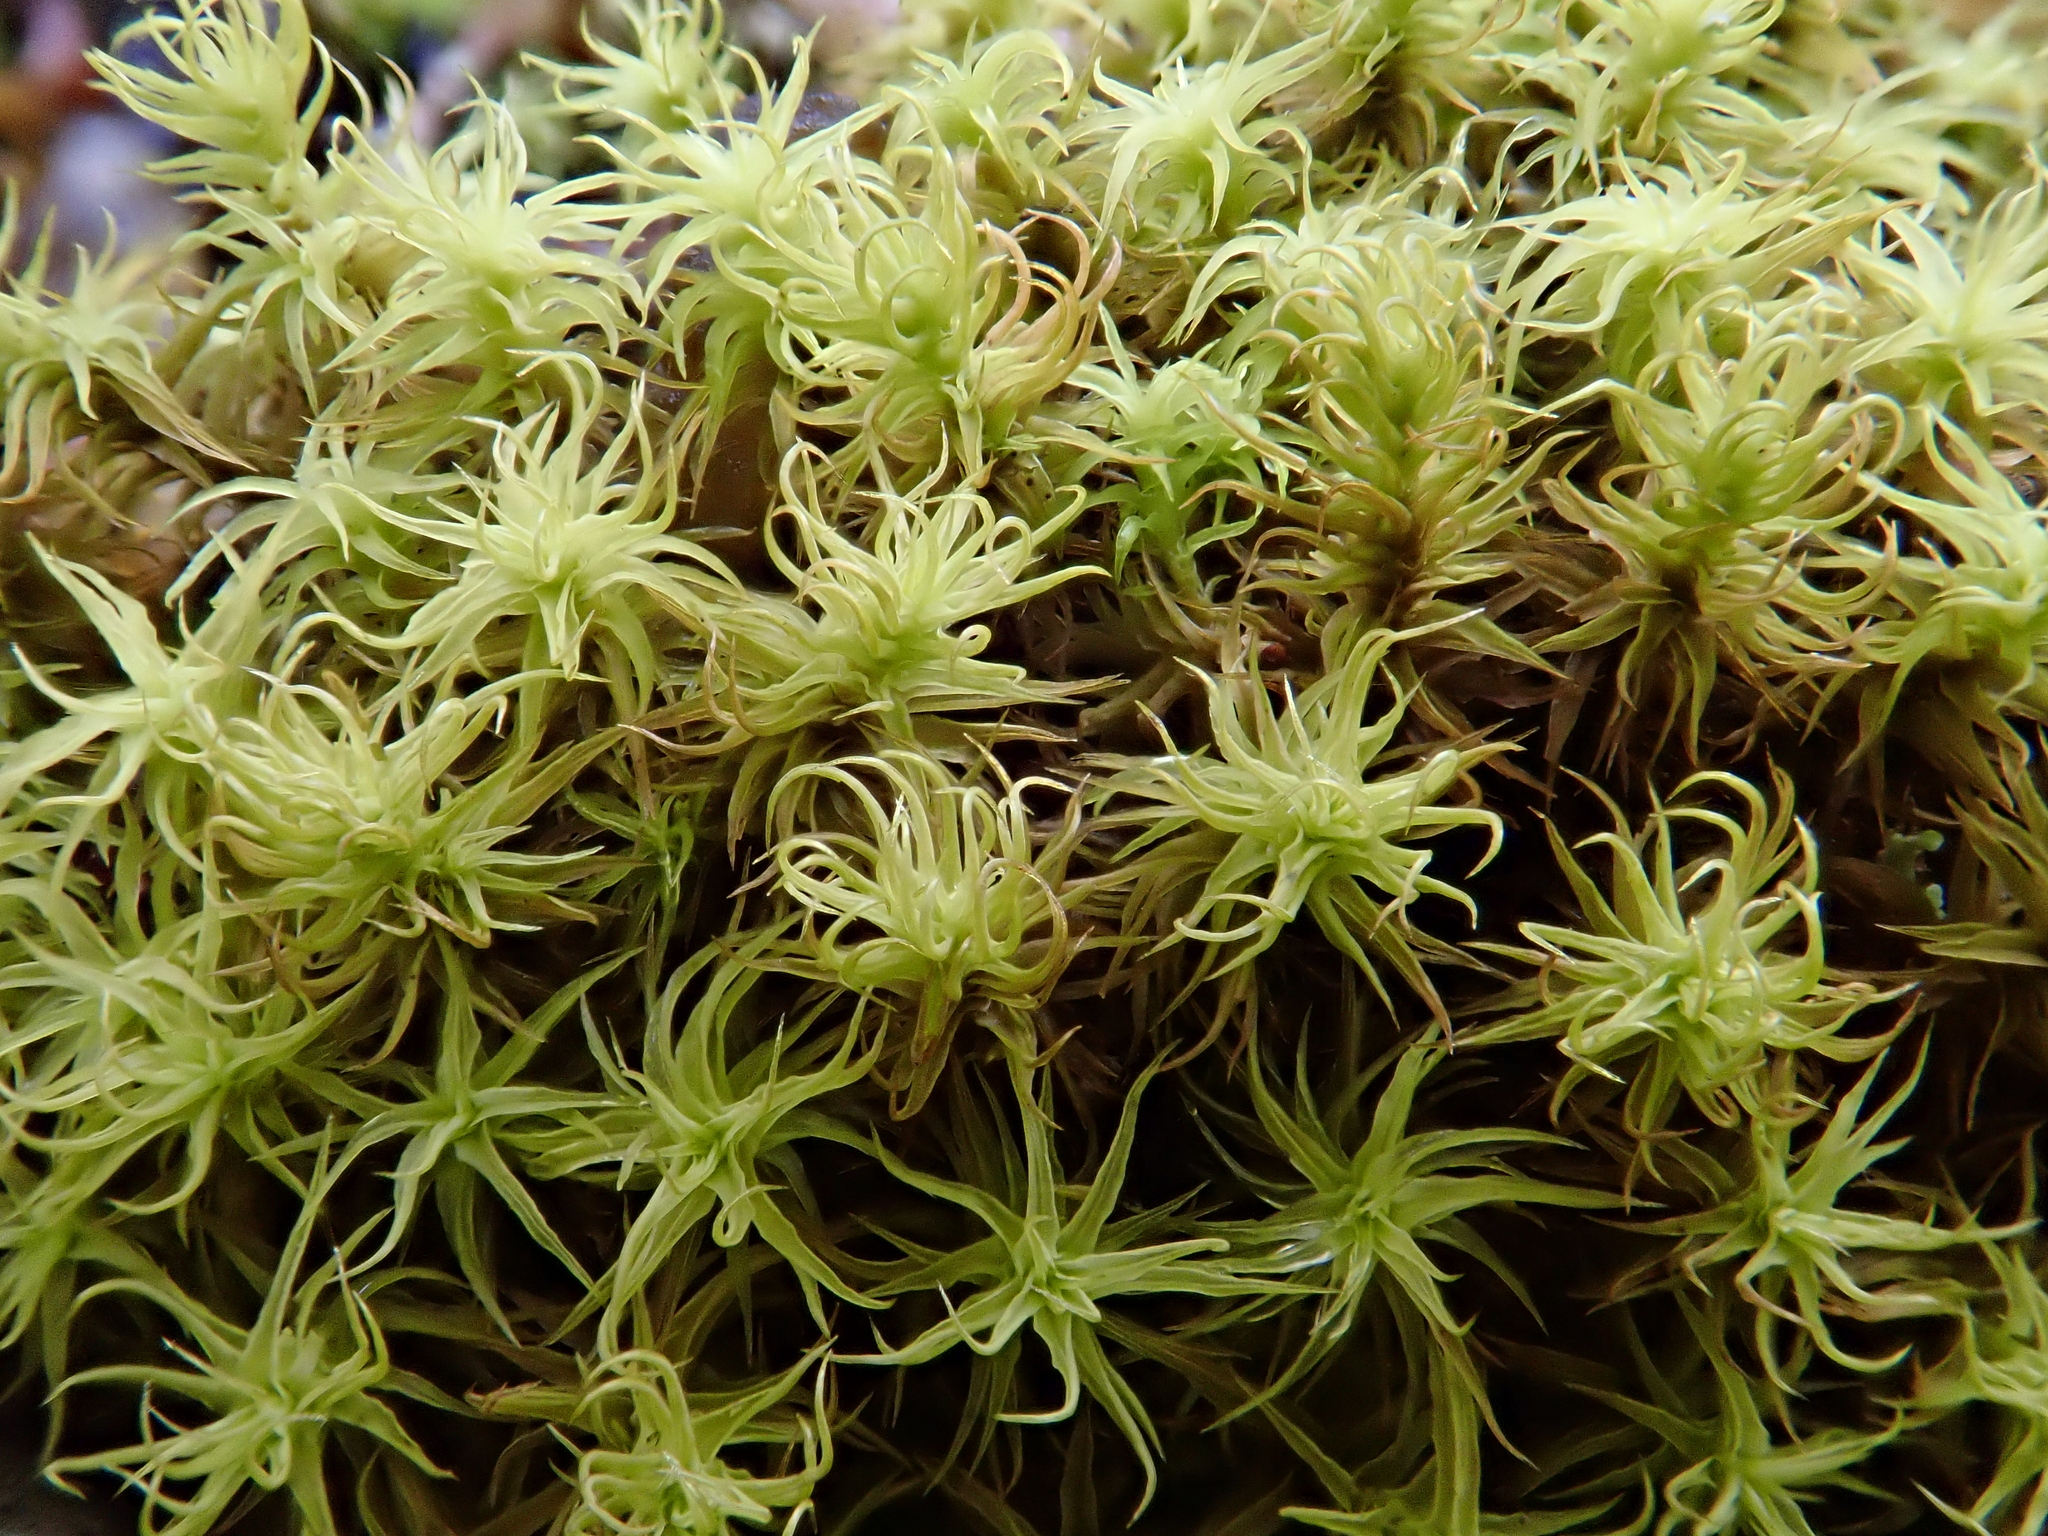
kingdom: Plantae
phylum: Bryophyta
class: Bryopsida
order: Pottiales
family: Pottiaceae
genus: Pleurochaete
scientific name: Pleurochaete squarrosa
